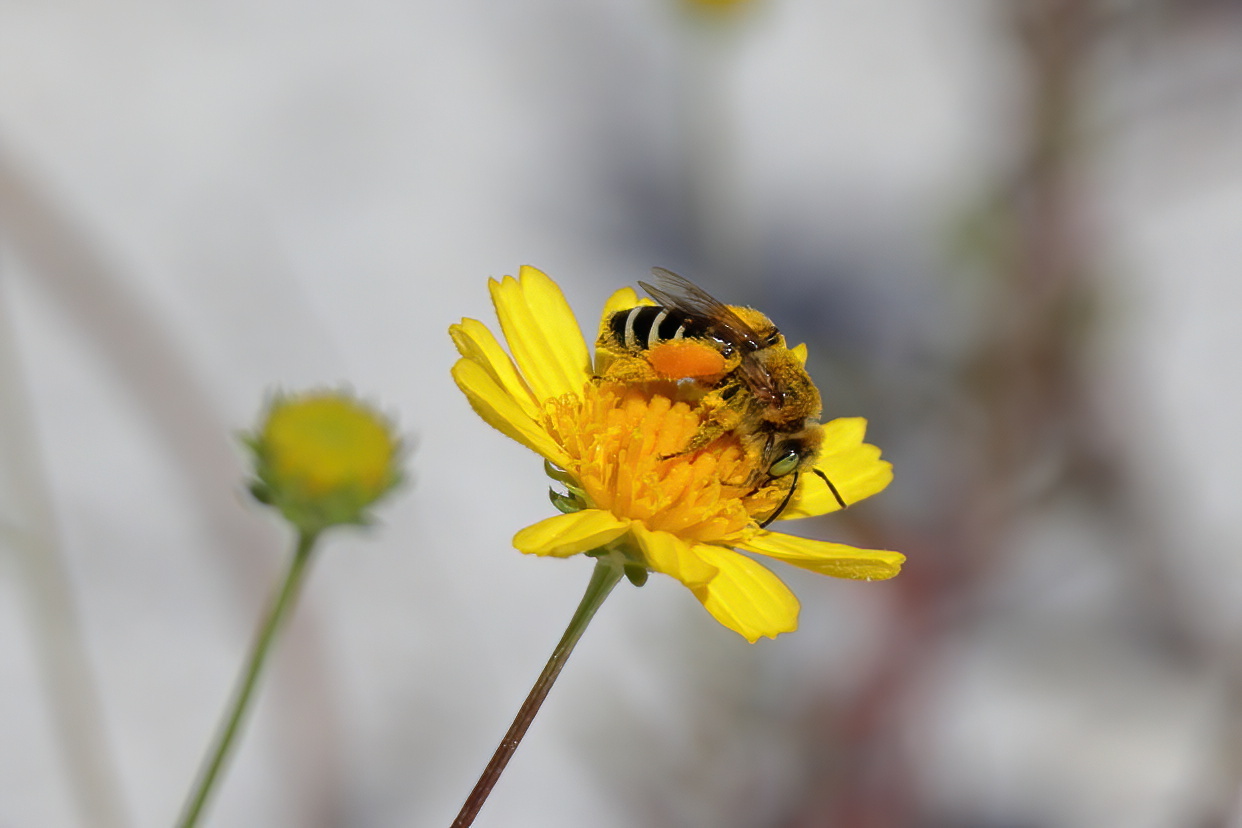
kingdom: Animalia
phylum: Arthropoda
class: Insecta
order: Hymenoptera
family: Melittidae
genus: Hesperapis
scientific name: Hesperapis oraria
